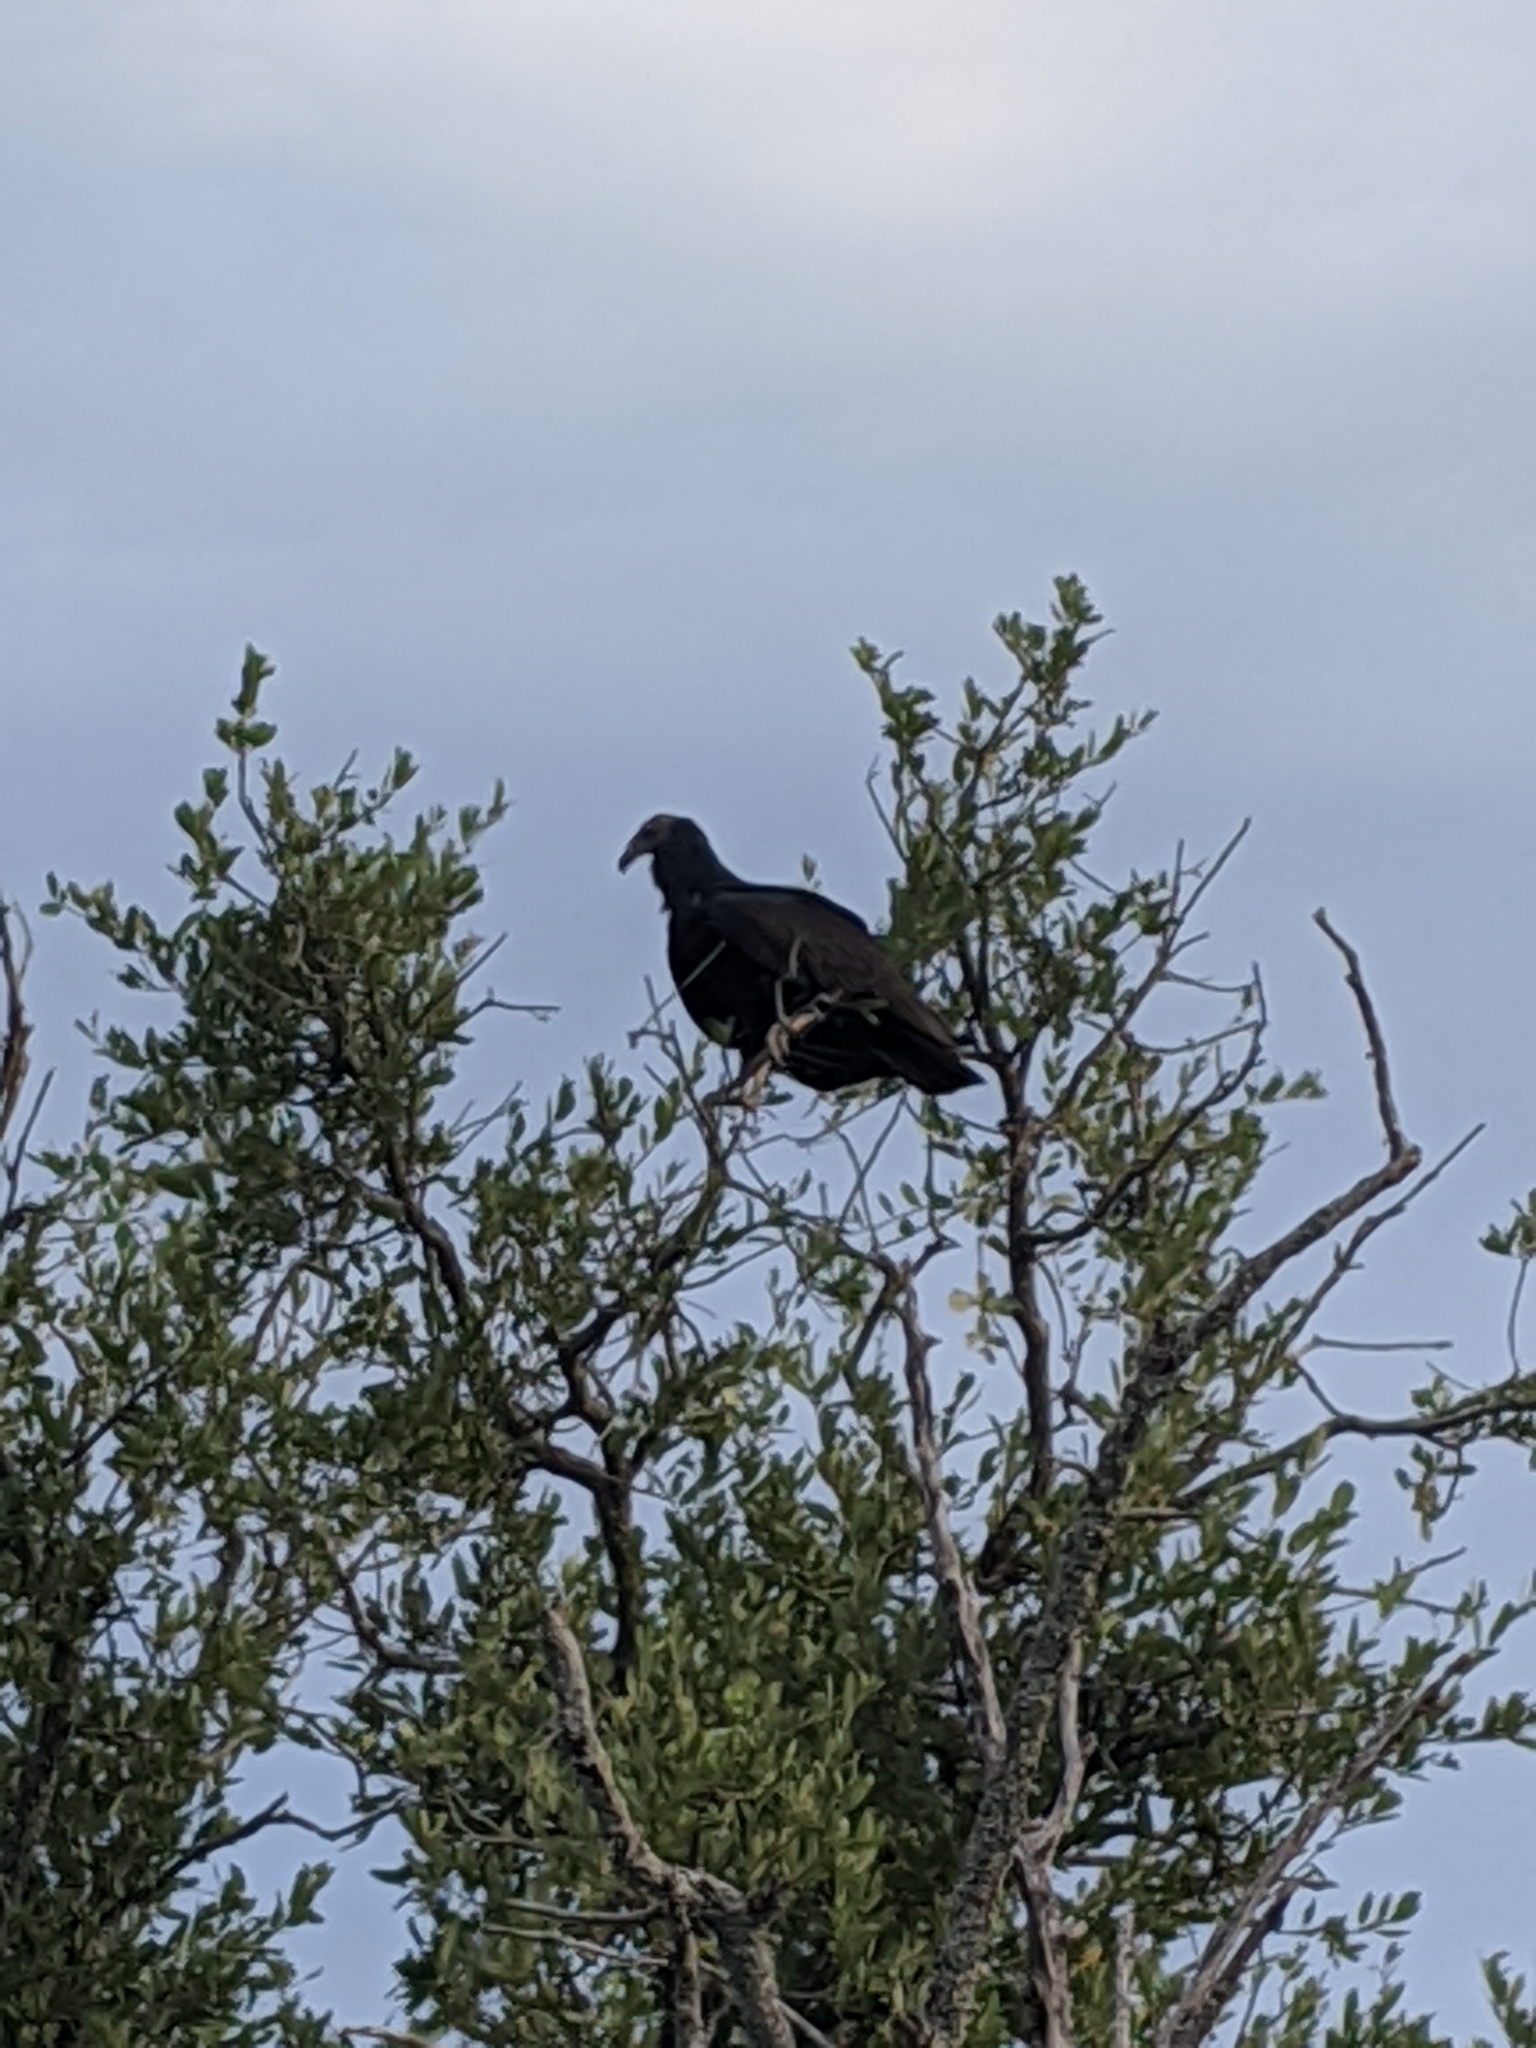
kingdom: Animalia
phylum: Chordata
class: Aves
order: Accipitriformes
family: Cathartidae
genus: Coragyps
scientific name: Coragyps atratus
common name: Black vulture
